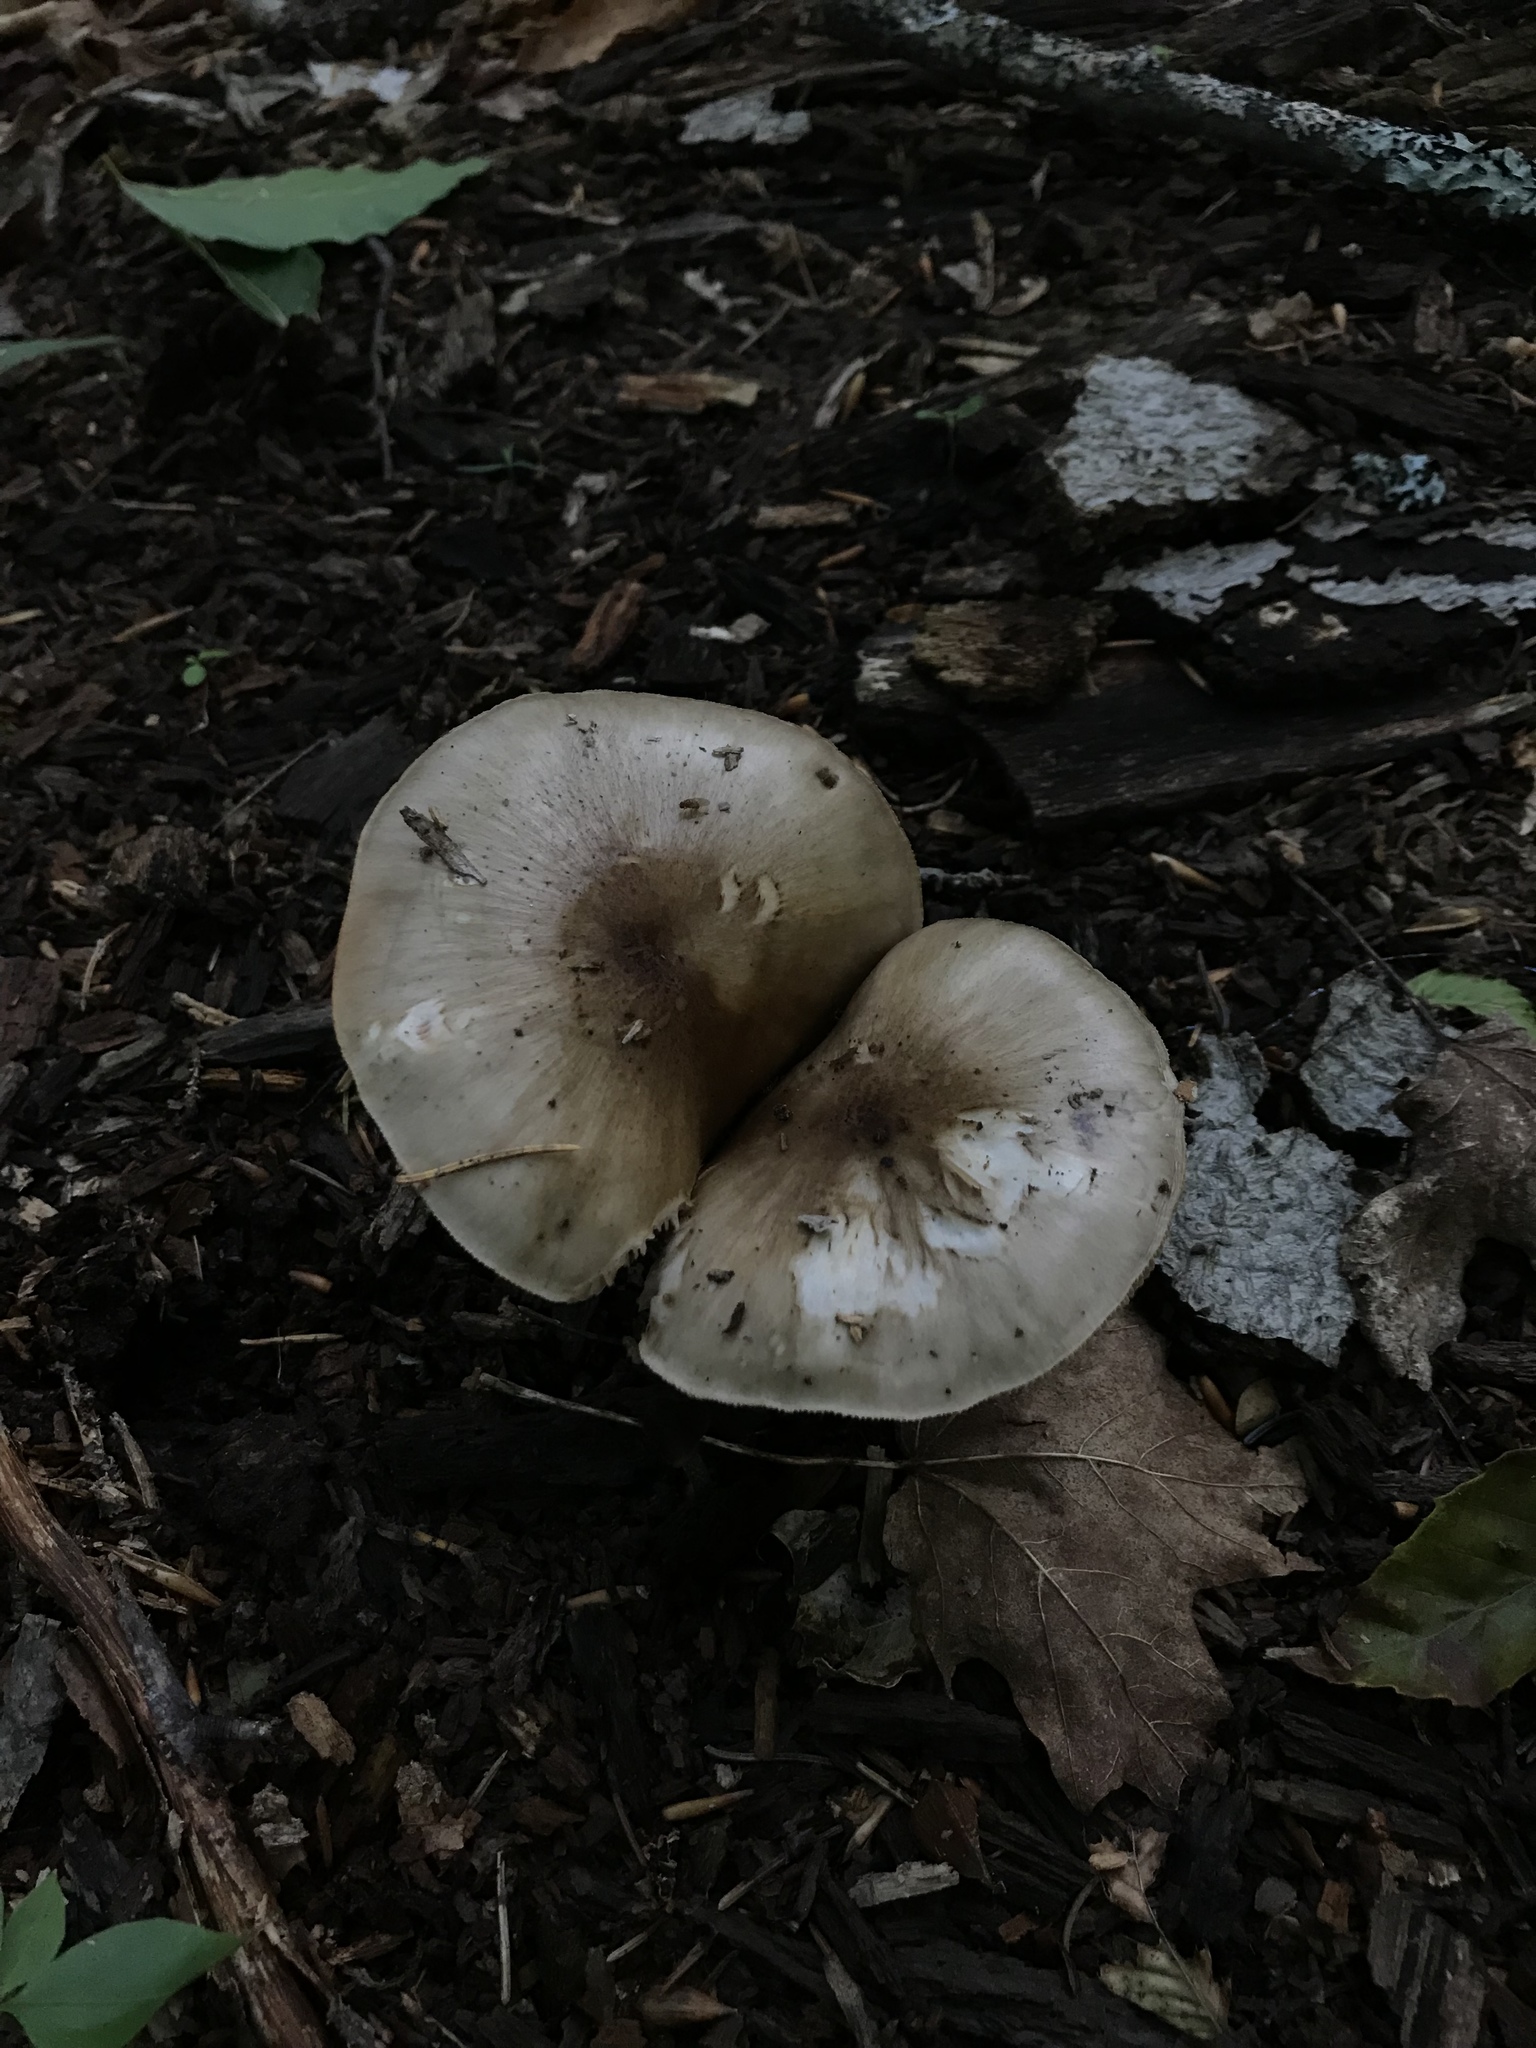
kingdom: Fungi
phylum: Basidiomycota
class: Agaricomycetes
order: Agaricales
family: Pluteaceae
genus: Pluteus
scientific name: Pluteus cervinus
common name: Deer shield
